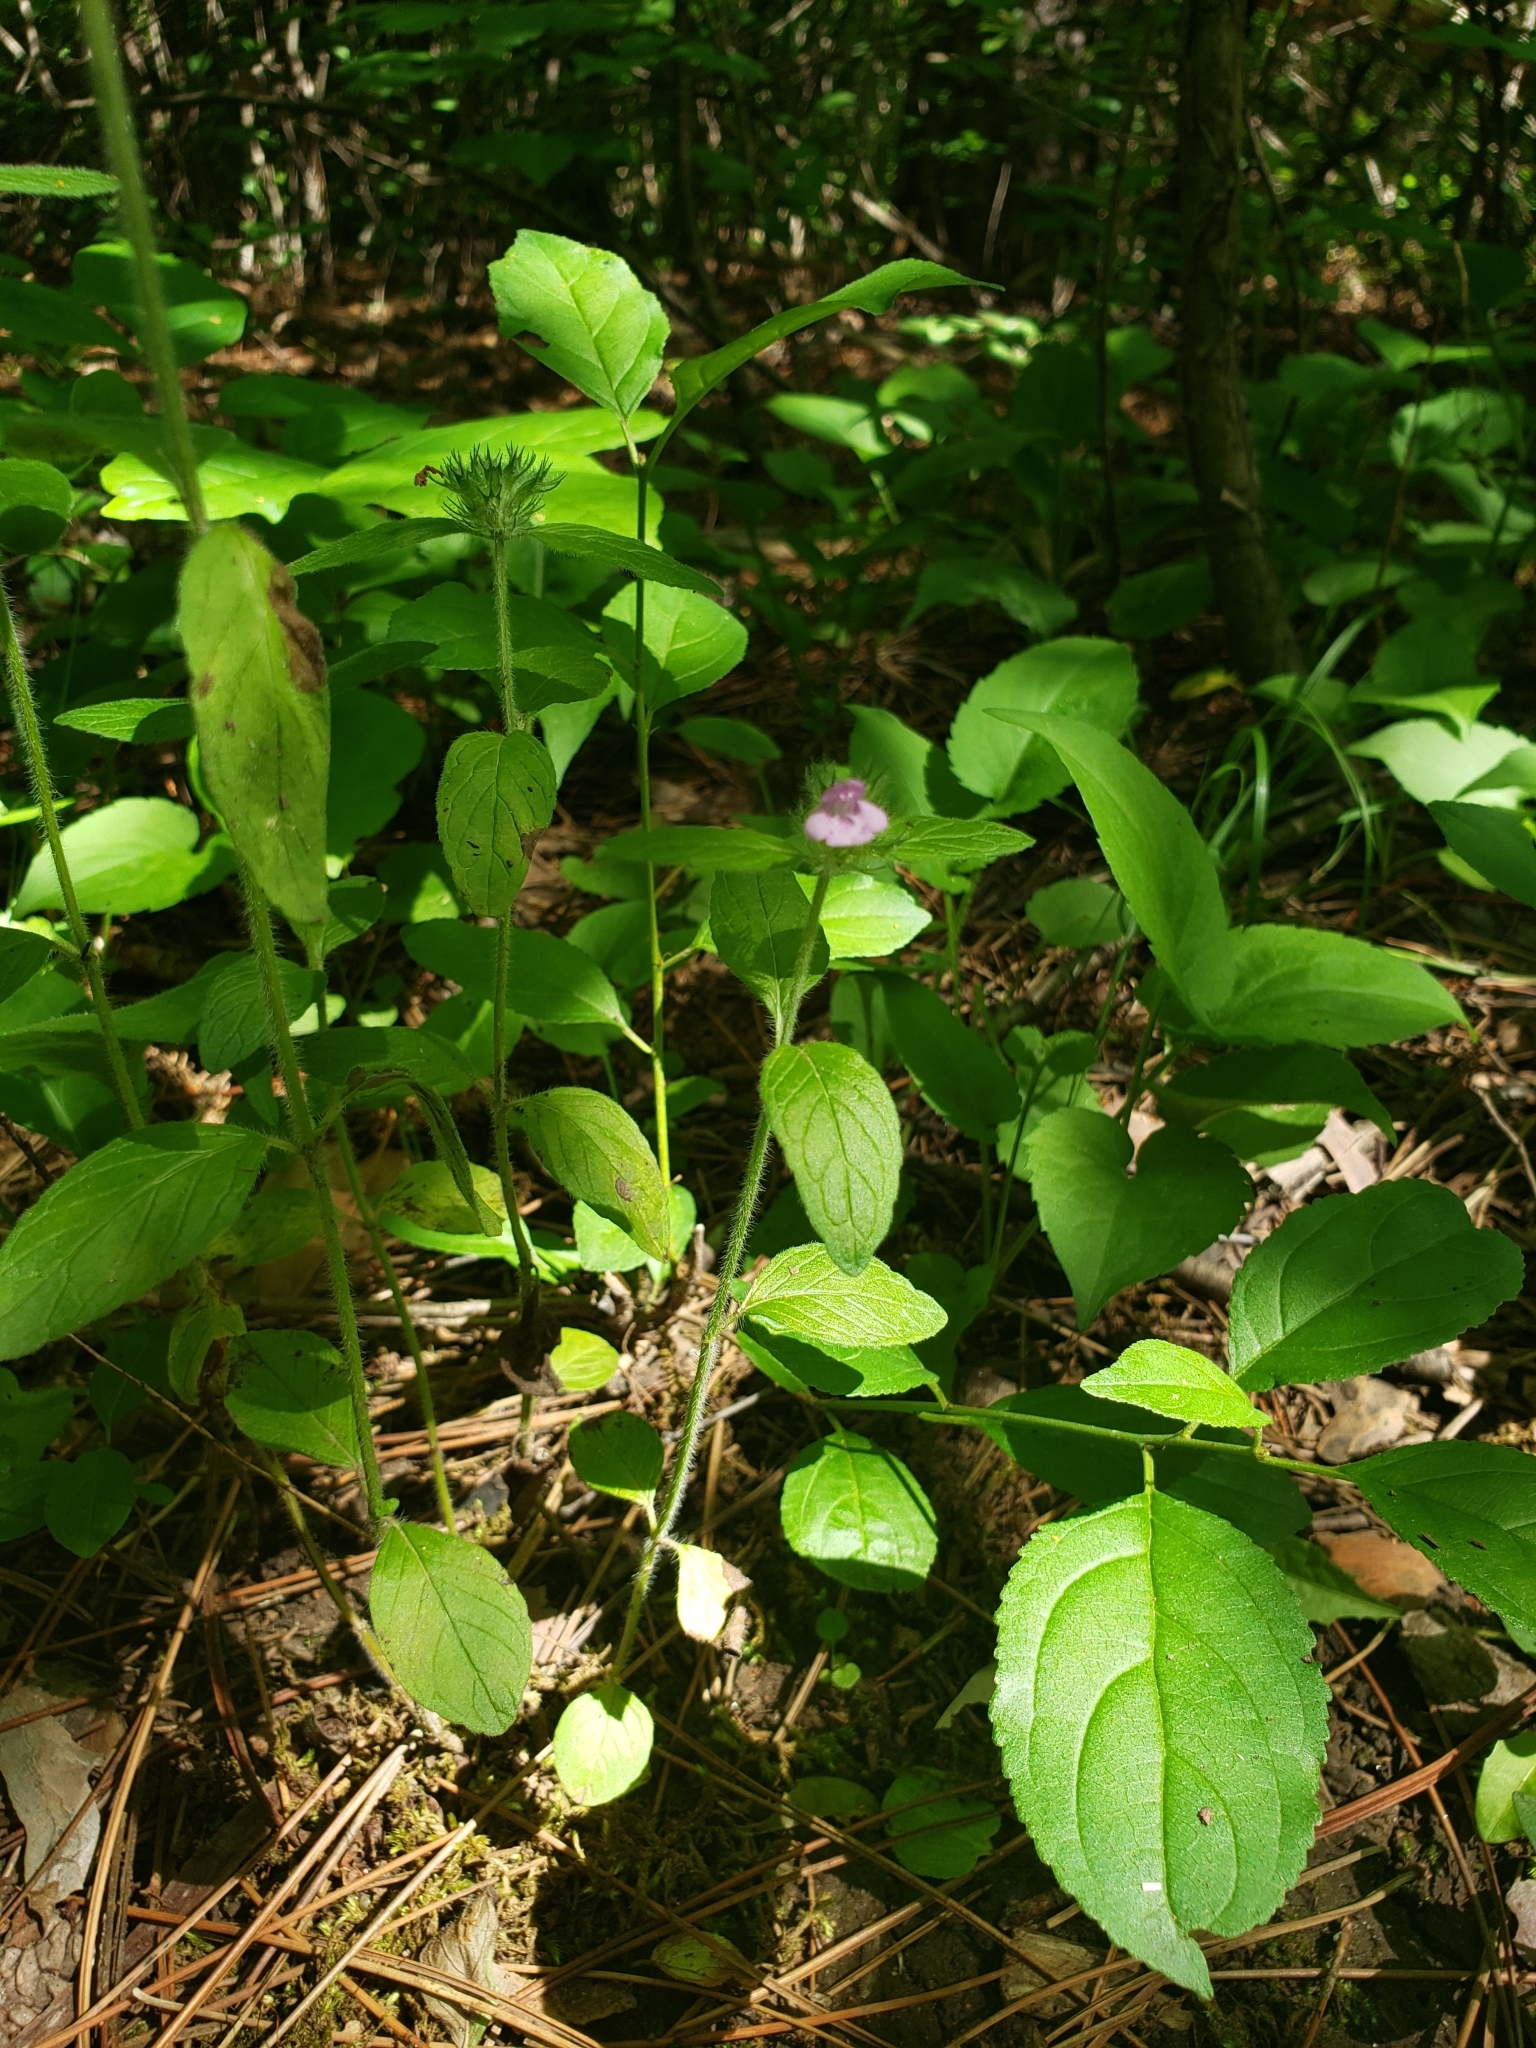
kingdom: Plantae
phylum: Tracheophyta
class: Magnoliopsida
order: Lamiales
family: Lamiaceae
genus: Clinopodium
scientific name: Clinopodium vulgare
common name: Wild basil
